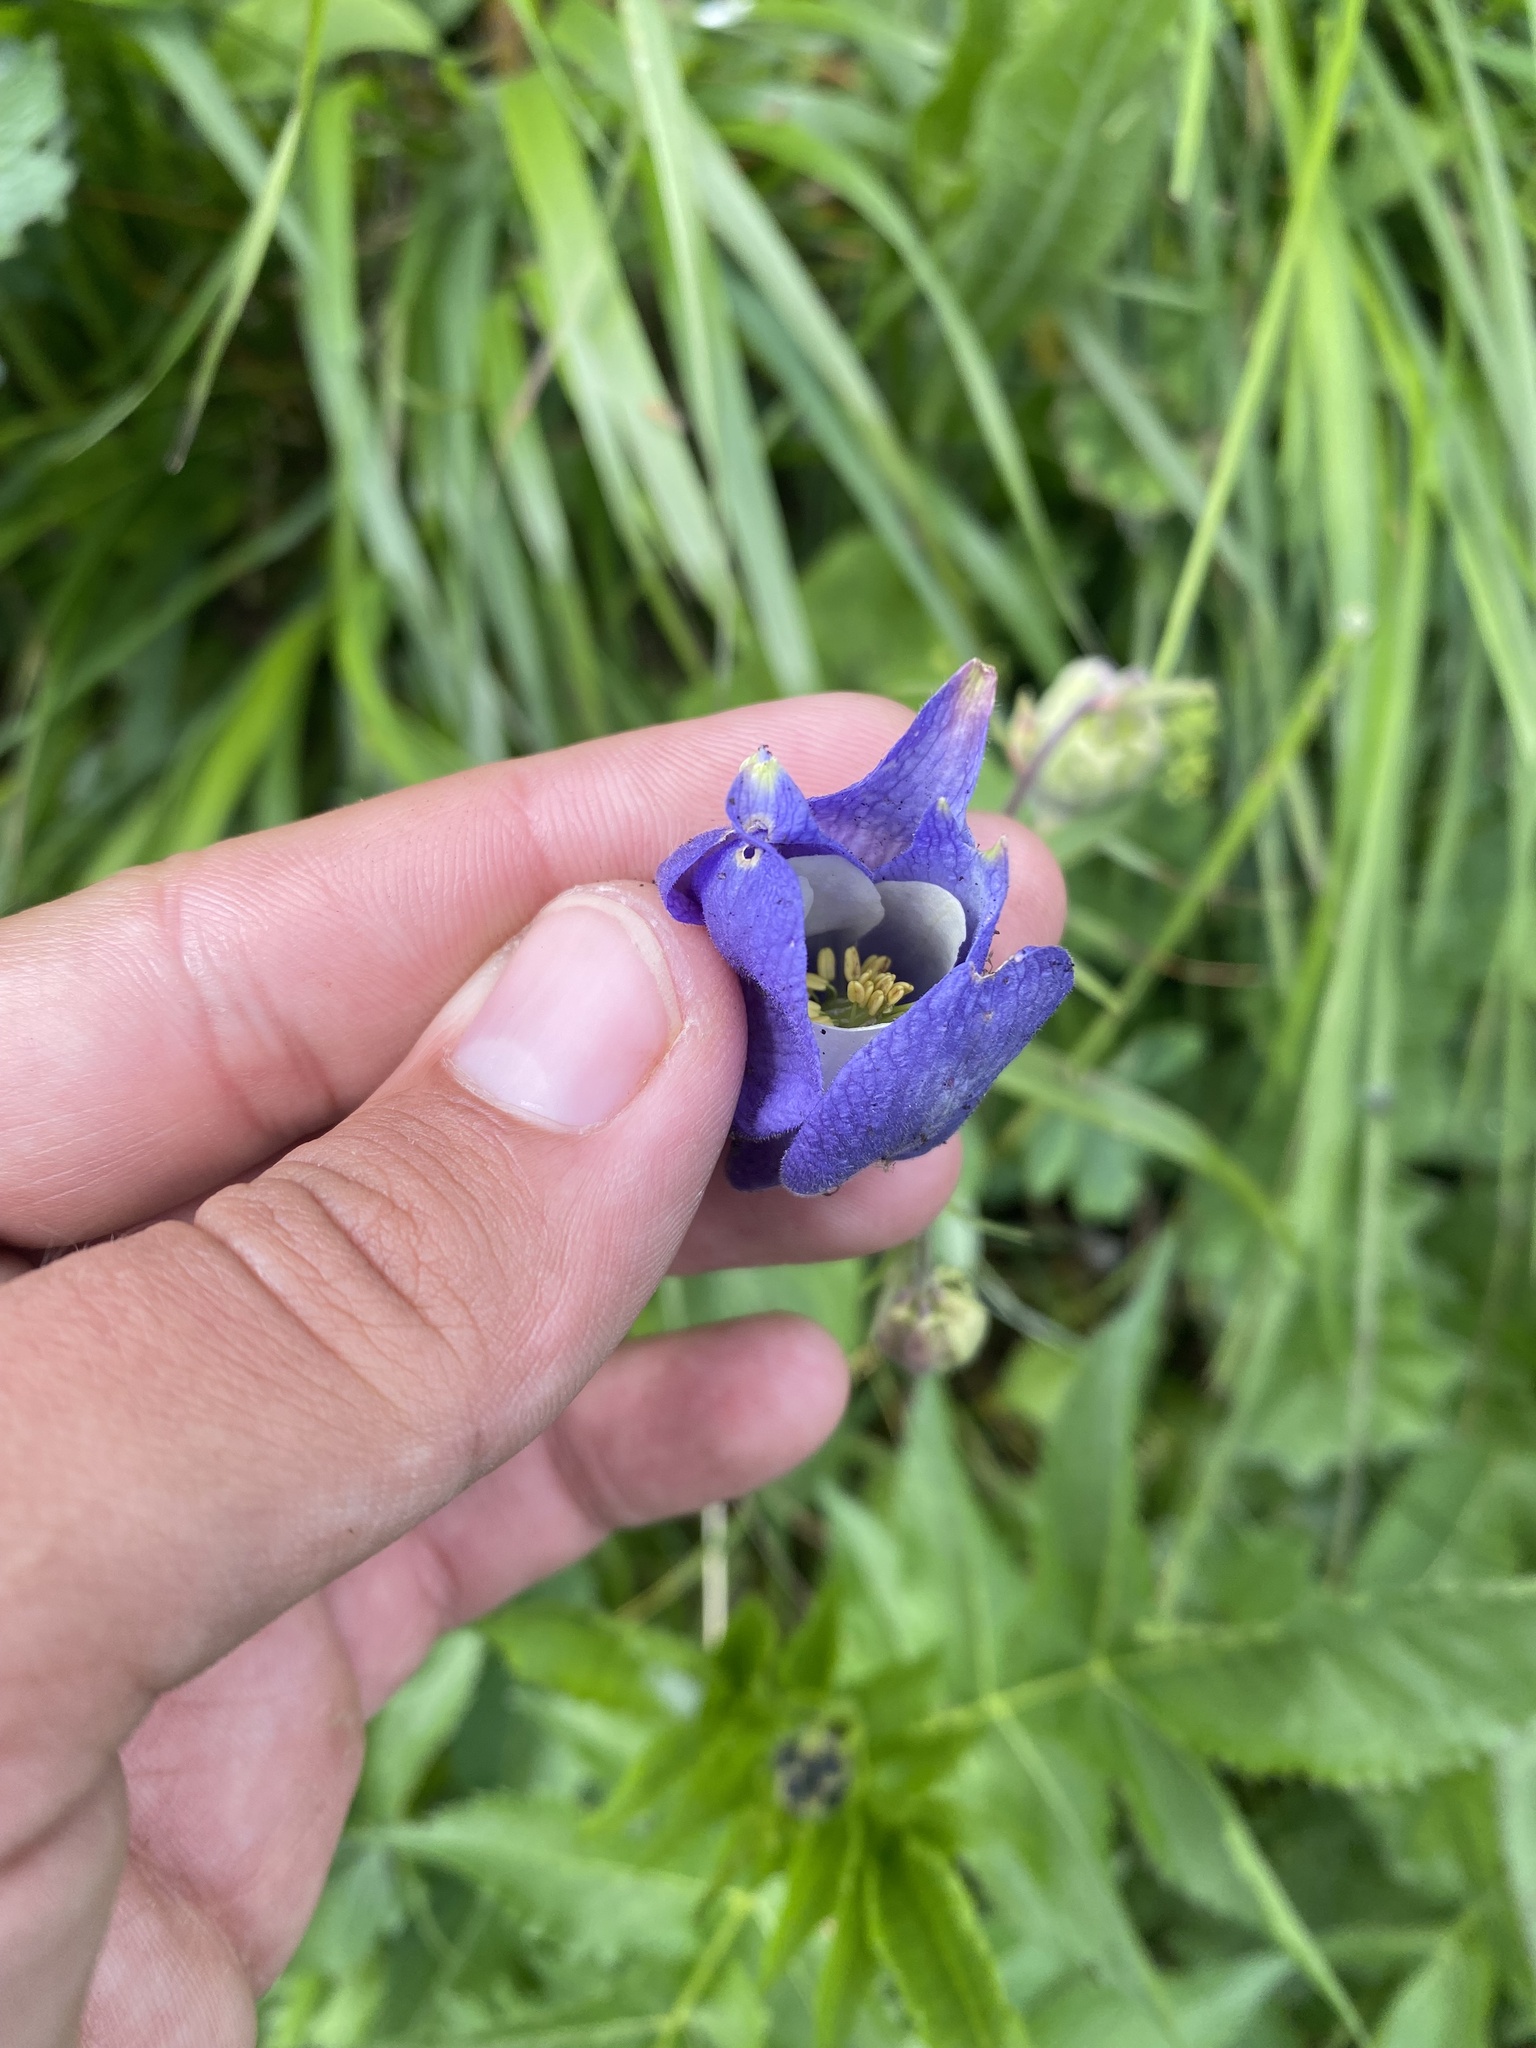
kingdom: Plantae
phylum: Tracheophyta
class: Magnoliopsida
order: Ranunculales
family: Ranunculaceae
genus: Aquilegia
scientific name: Aquilegia olympica
